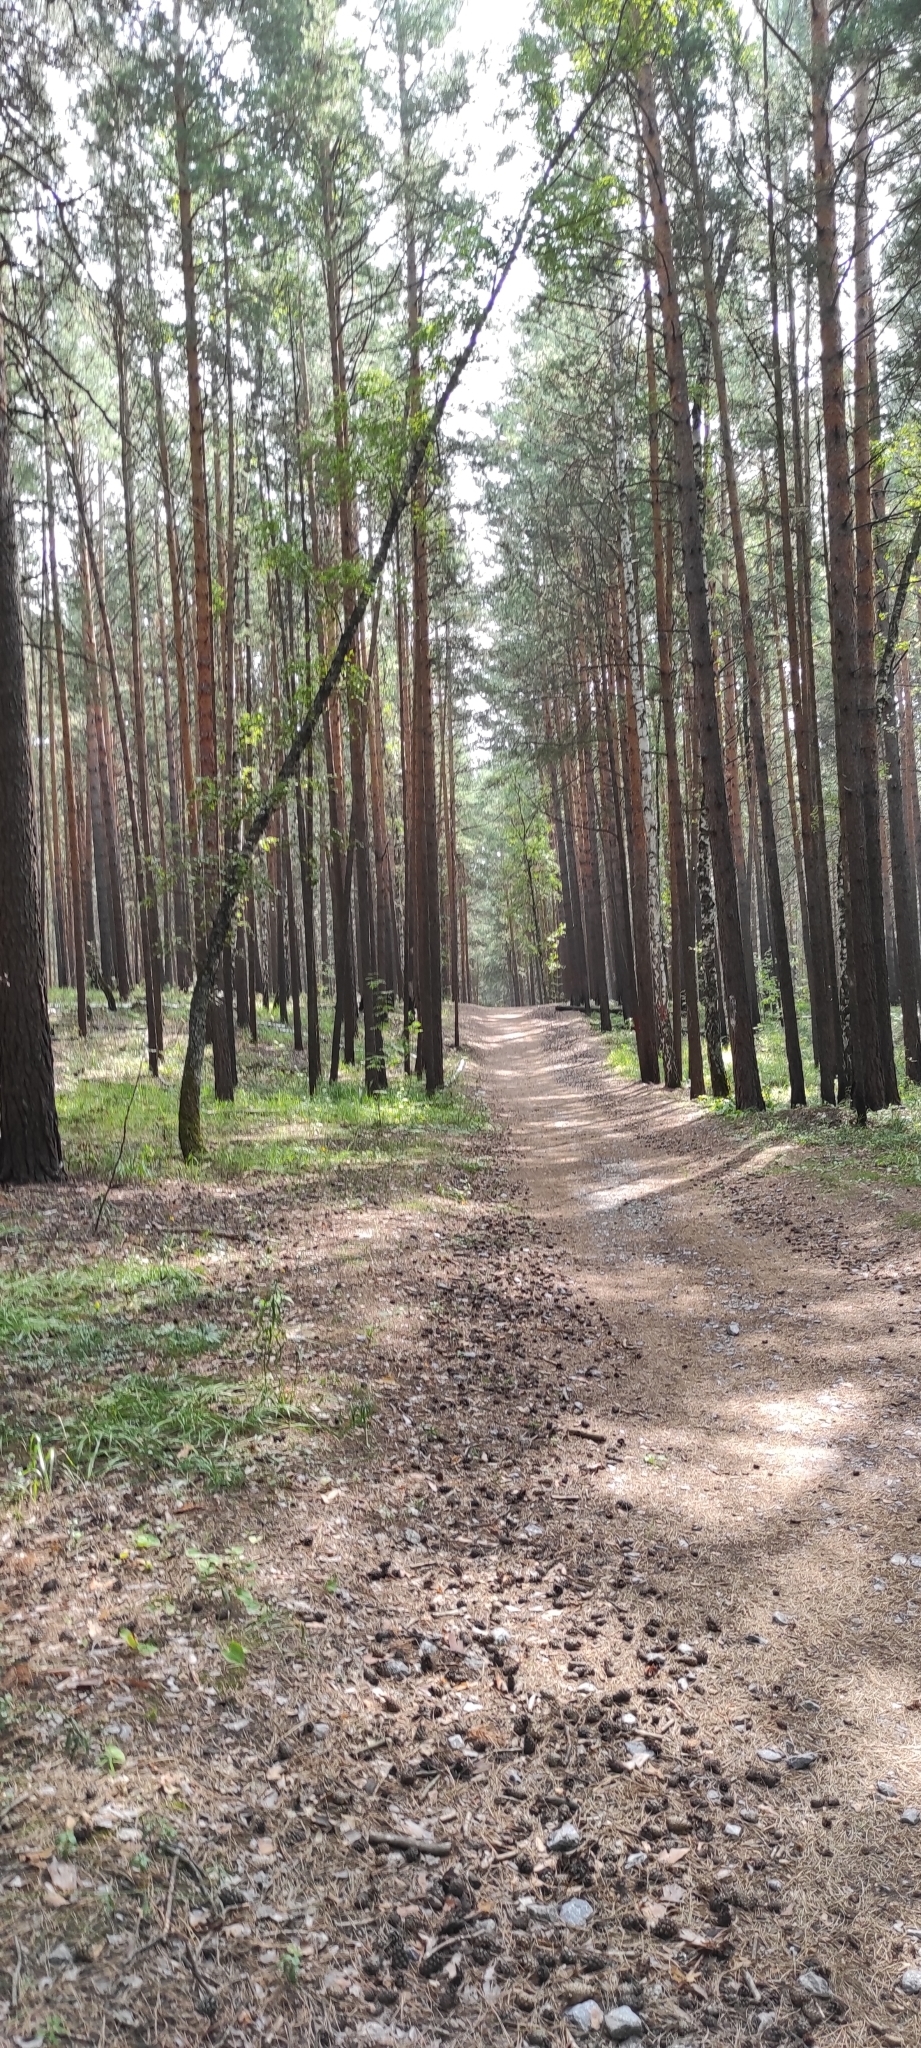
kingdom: Plantae
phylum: Tracheophyta
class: Pinopsida
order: Pinales
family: Pinaceae
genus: Pinus
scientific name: Pinus sylvestris
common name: Scots pine
